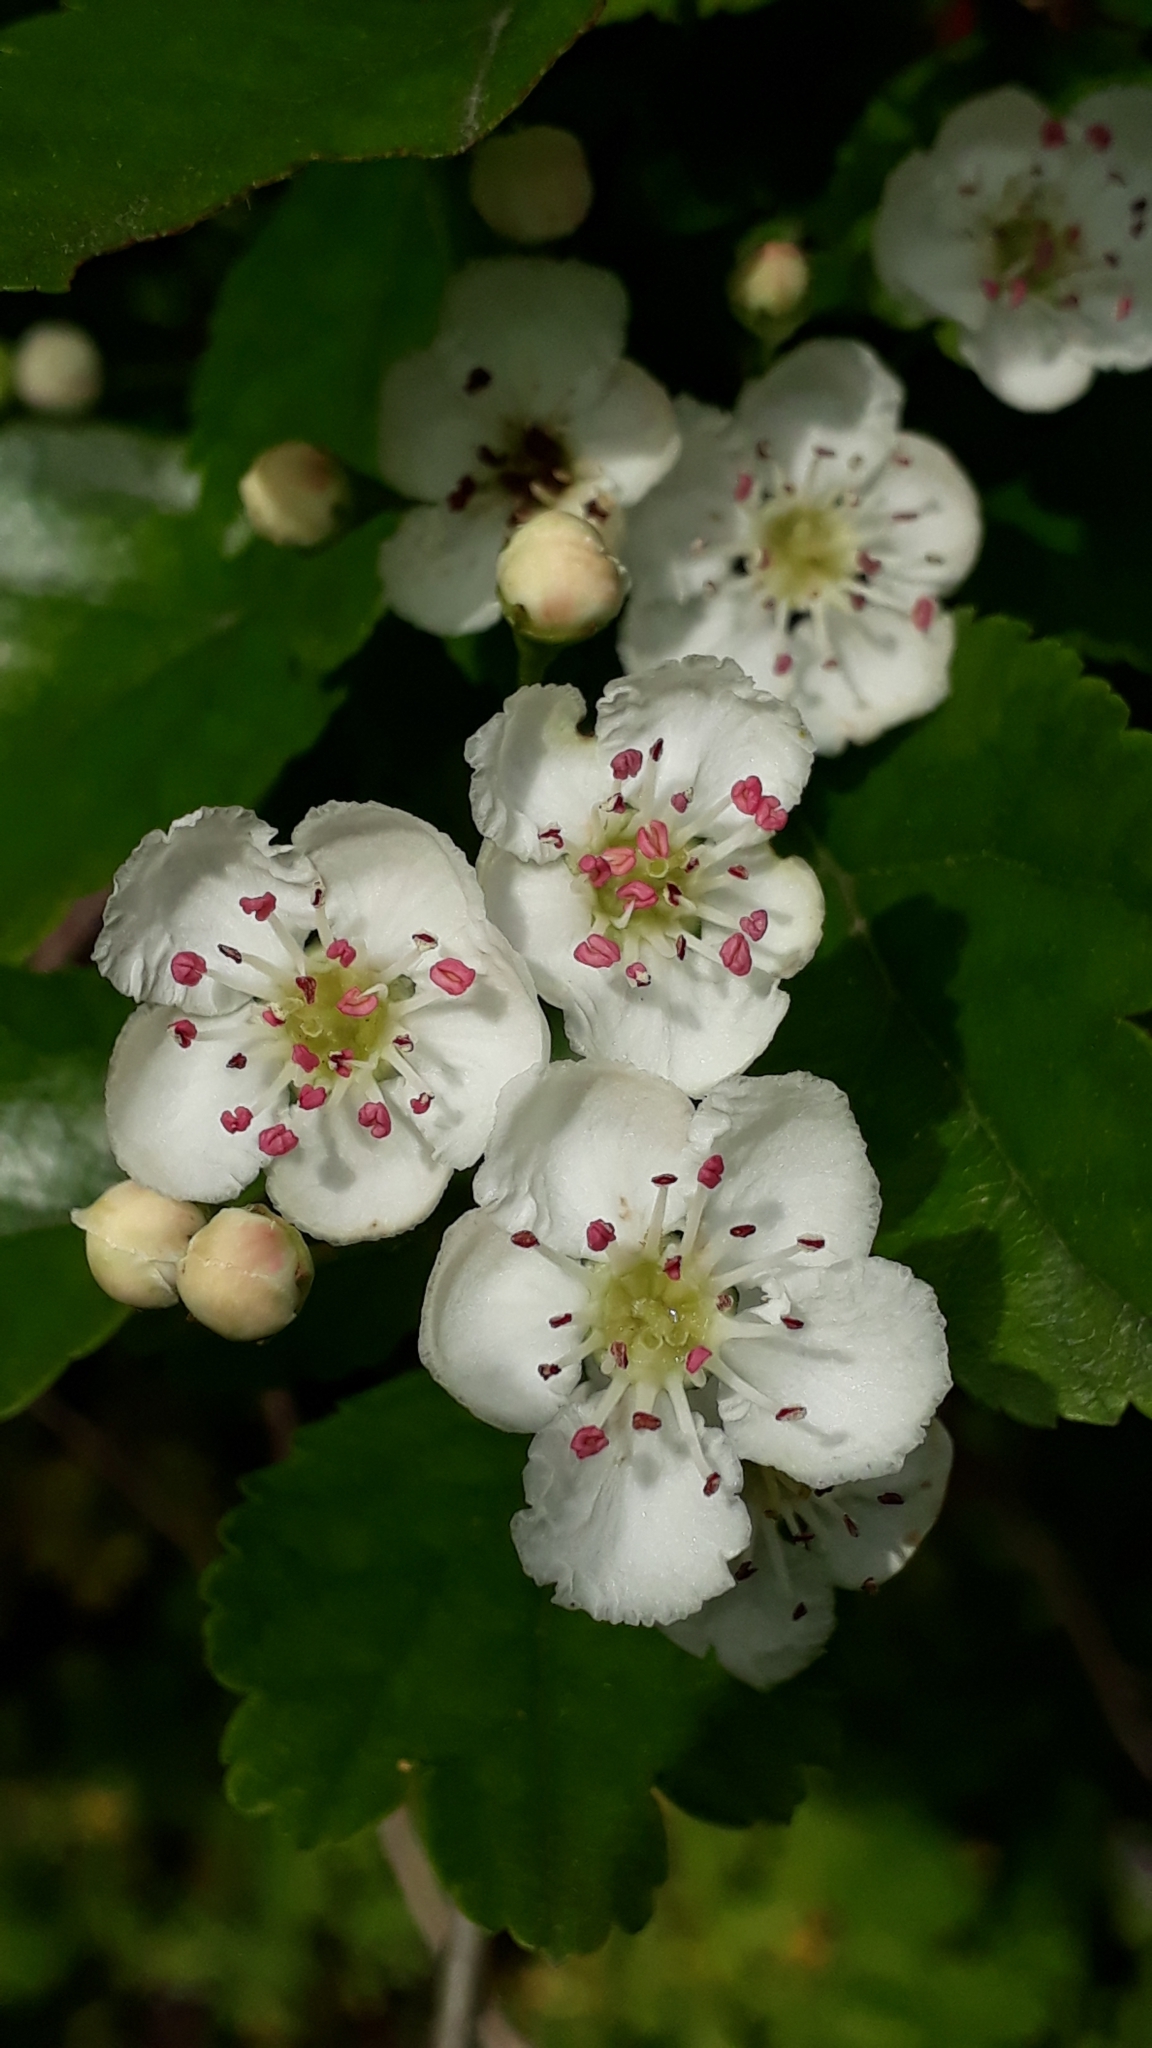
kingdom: Plantae
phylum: Tracheophyta
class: Magnoliopsida
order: Rosales
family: Rosaceae
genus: Crataegus
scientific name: Crataegus laevigata
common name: Midland hawthorn
